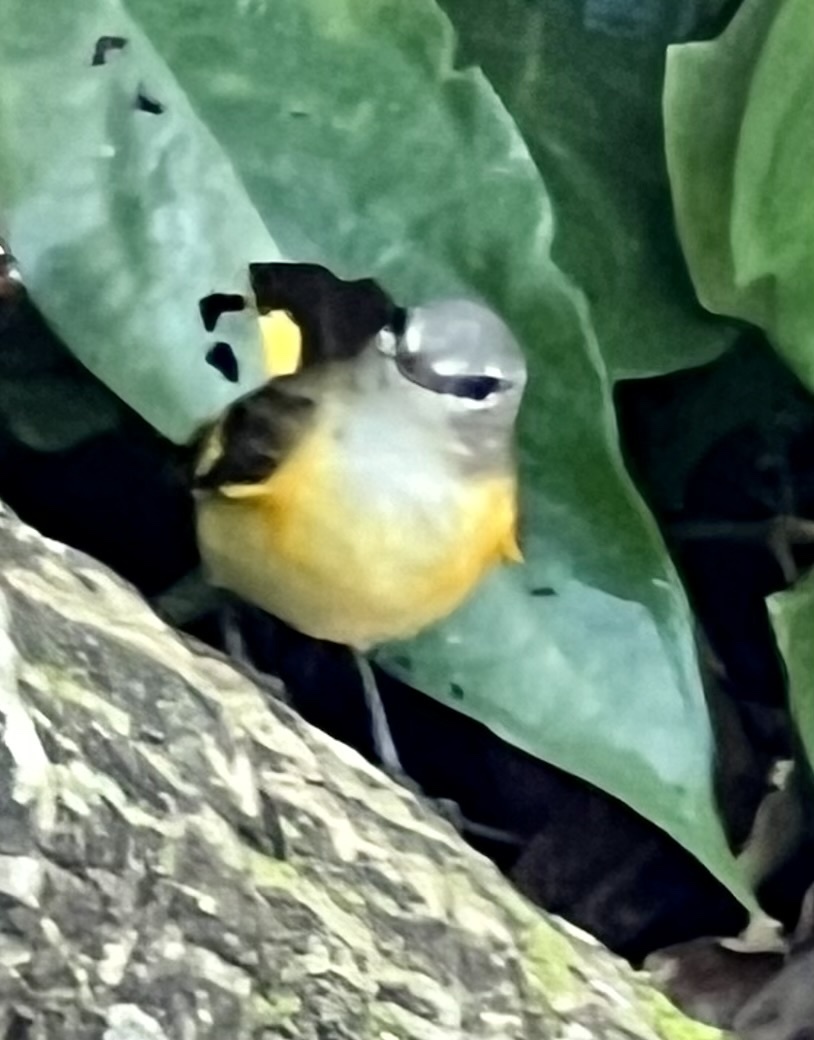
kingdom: Animalia
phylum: Chordata
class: Aves
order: Passeriformes
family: Parulidae
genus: Setophaga
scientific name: Setophaga ruticilla
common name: American redstart
